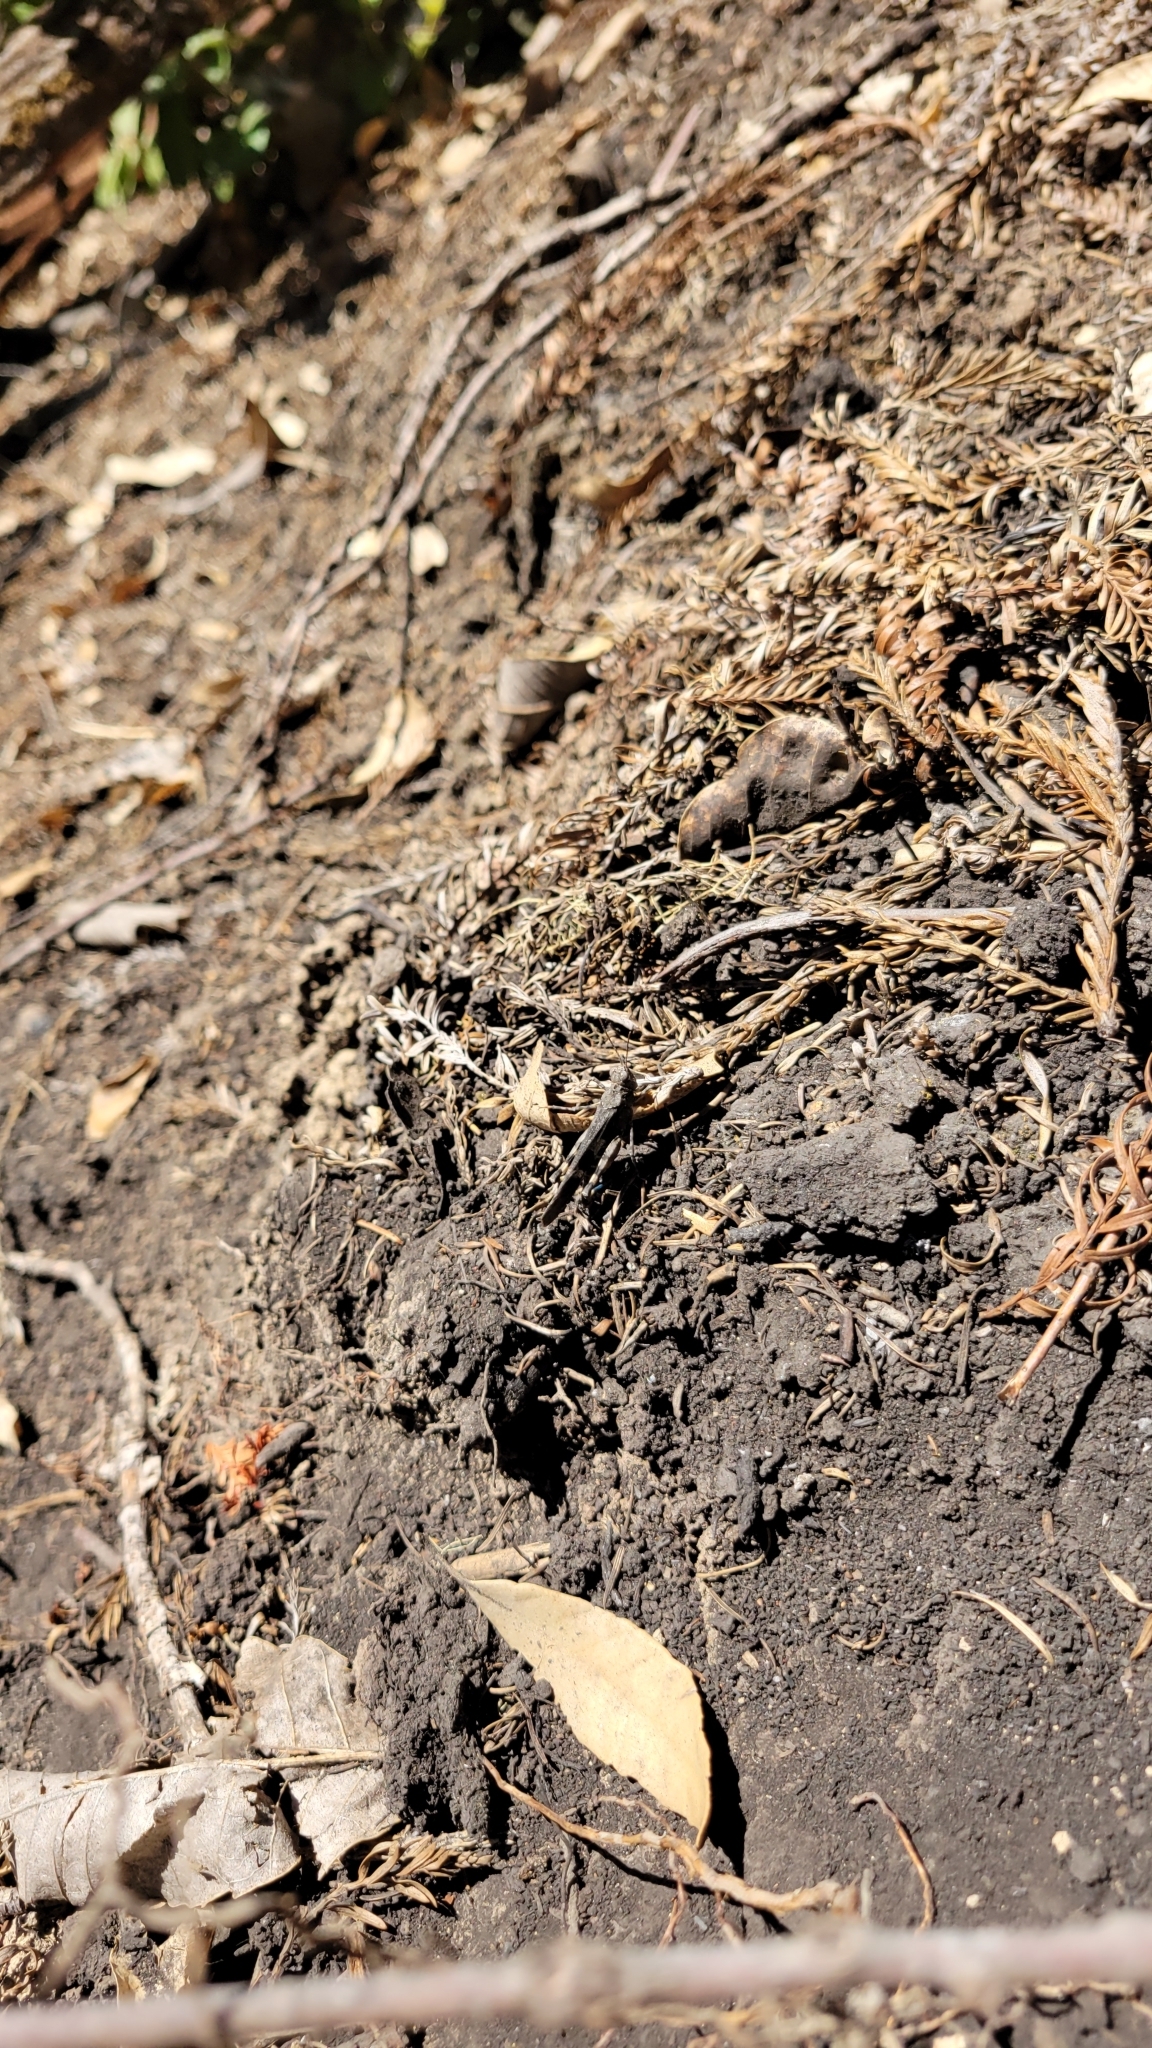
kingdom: Animalia
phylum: Arthropoda
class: Insecta
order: Orthoptera
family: Acrididae
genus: Trimerotropis
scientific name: Trimerotropis fontana
